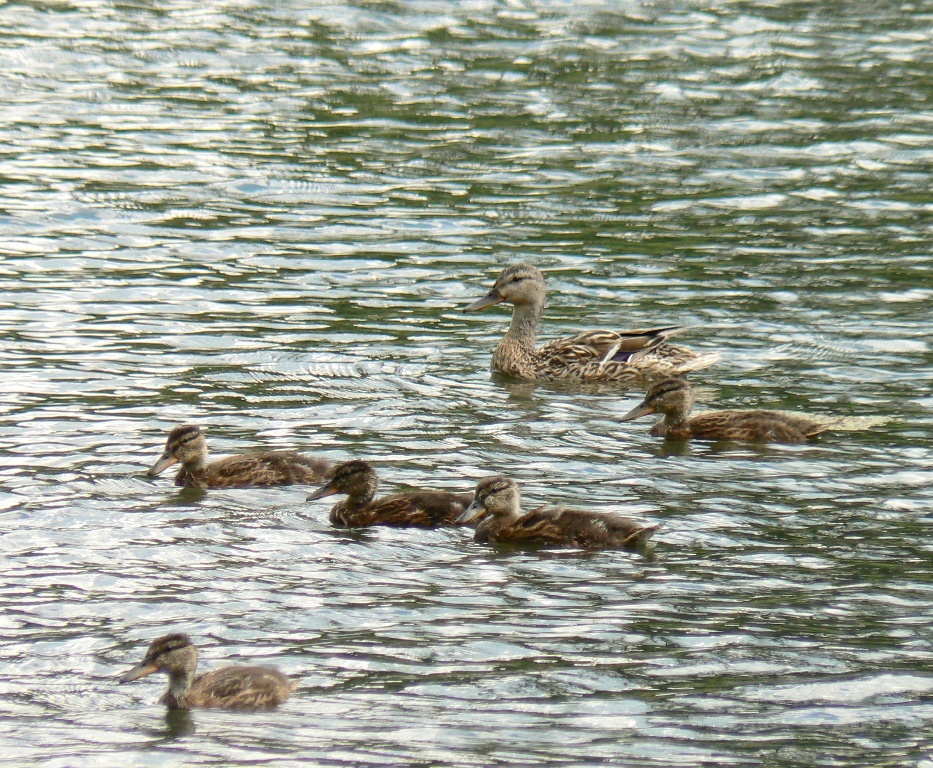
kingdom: Animalia
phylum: Chordata
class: Aves
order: Anseriformes
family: Anatidae
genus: Anas
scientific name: Anas platyrhynchos
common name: Mallard
